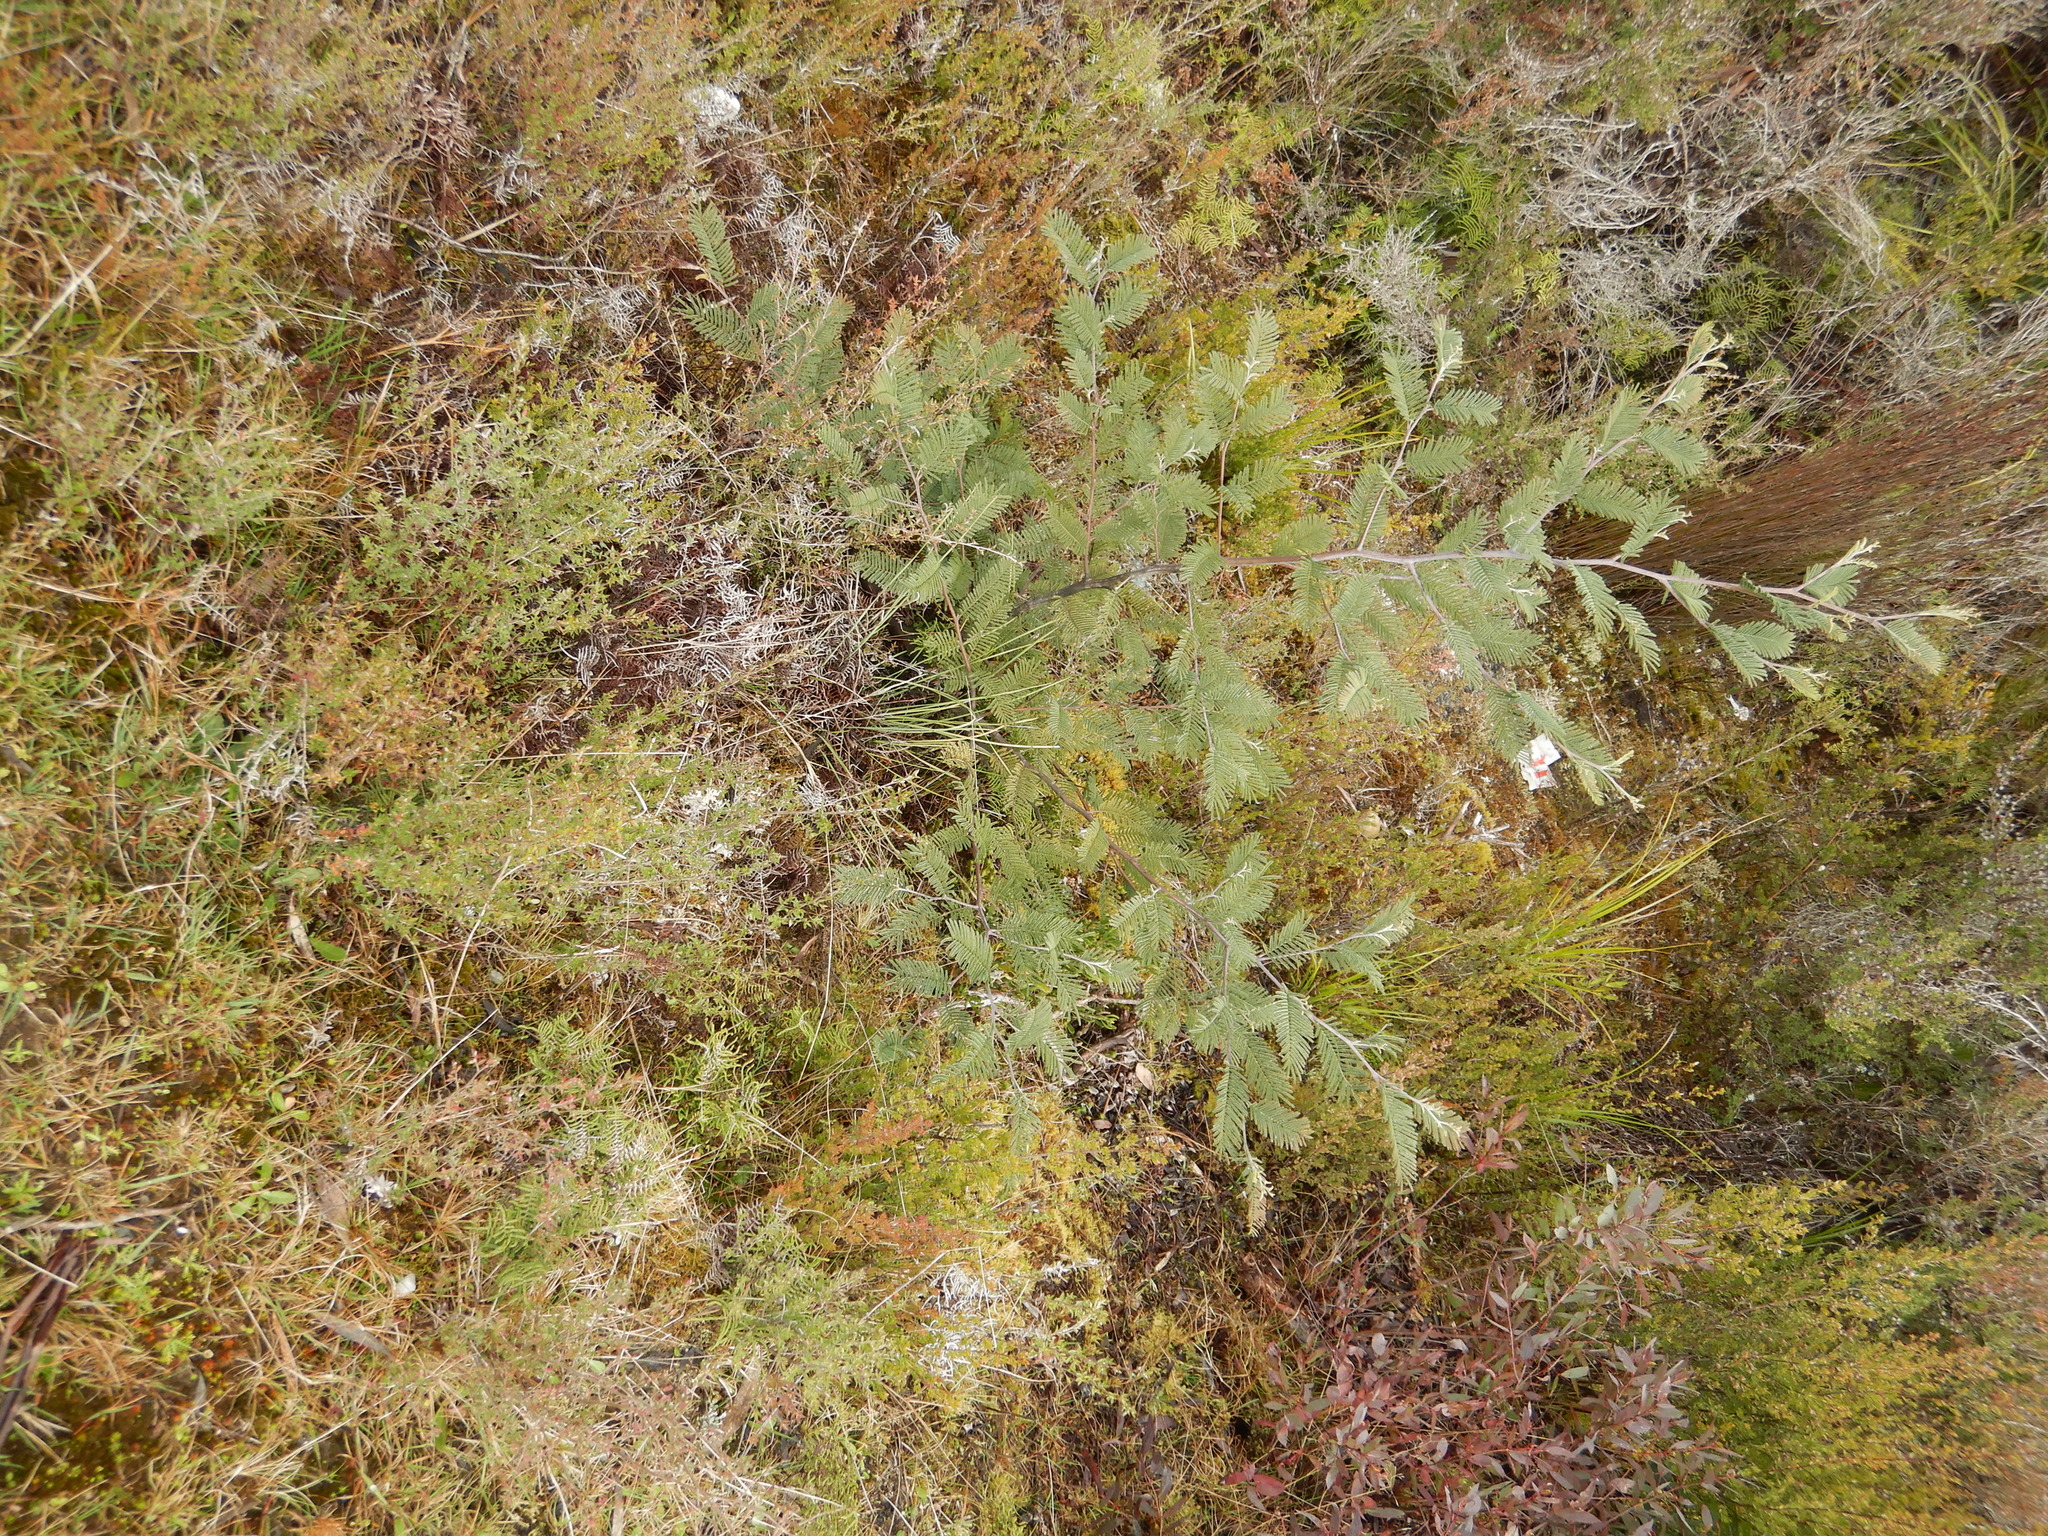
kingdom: Plantae
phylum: Tracheophyta
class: Magnoliopsida
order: Fabales
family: Fabaceae
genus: Acacia
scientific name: Acacia dealbata
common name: Silver wattle
